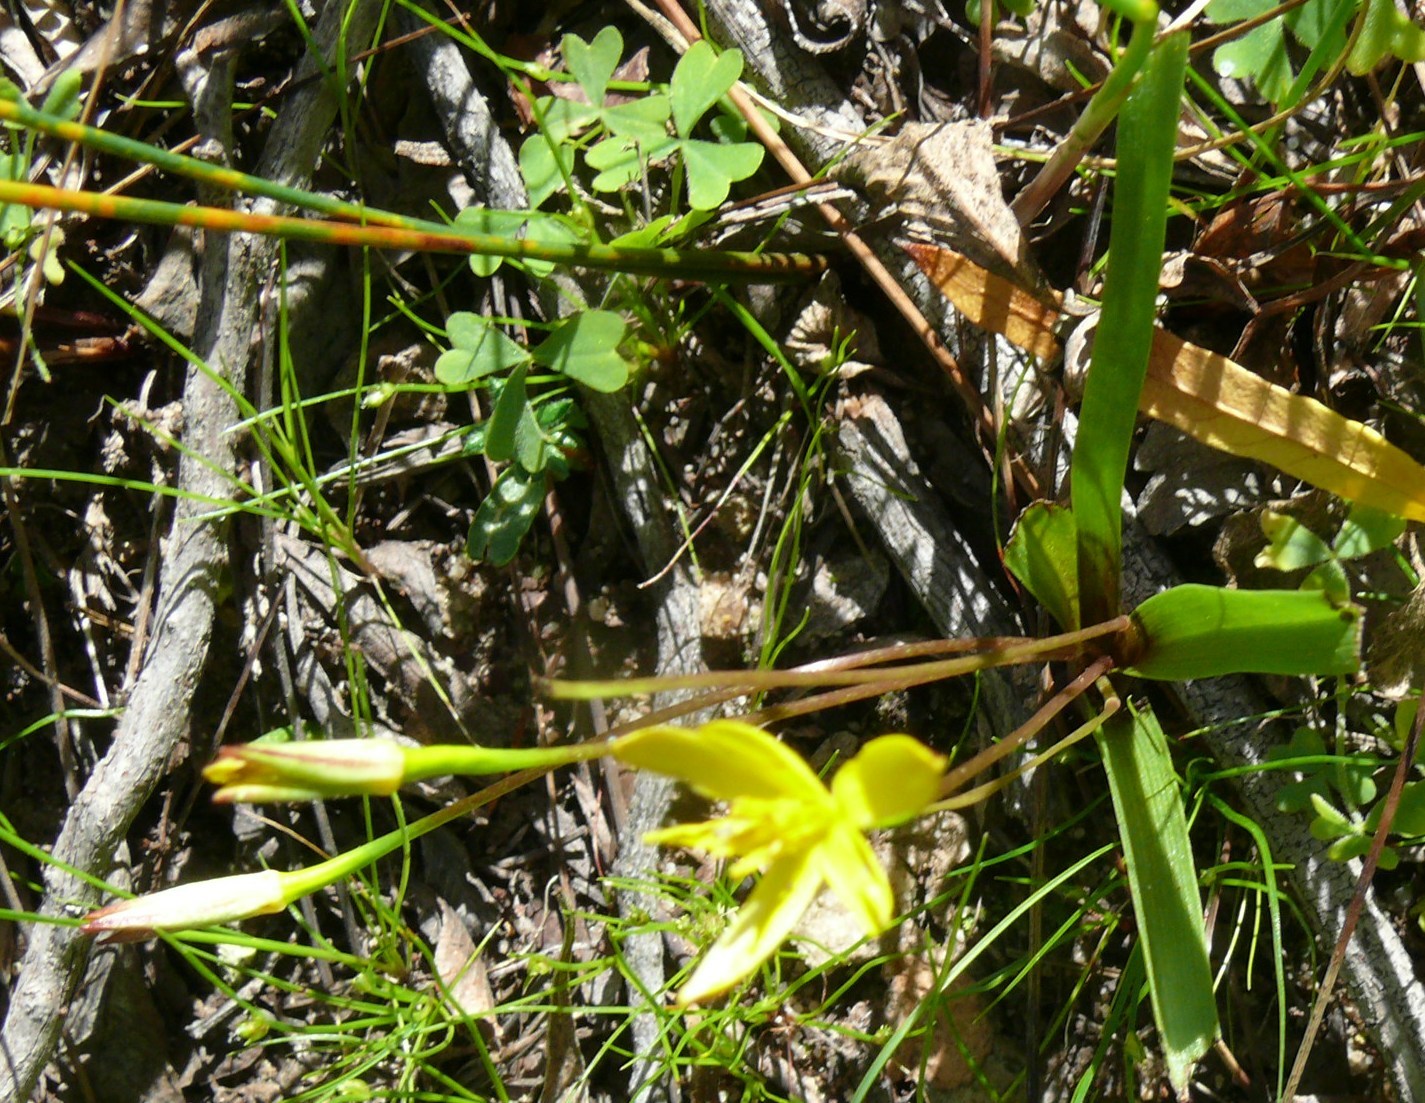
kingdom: Plantae
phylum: Tracheophyta
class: Liliopsida
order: Asparagales
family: Hypoxidaceae
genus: Pauridia
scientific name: Pauridia gracilipes
